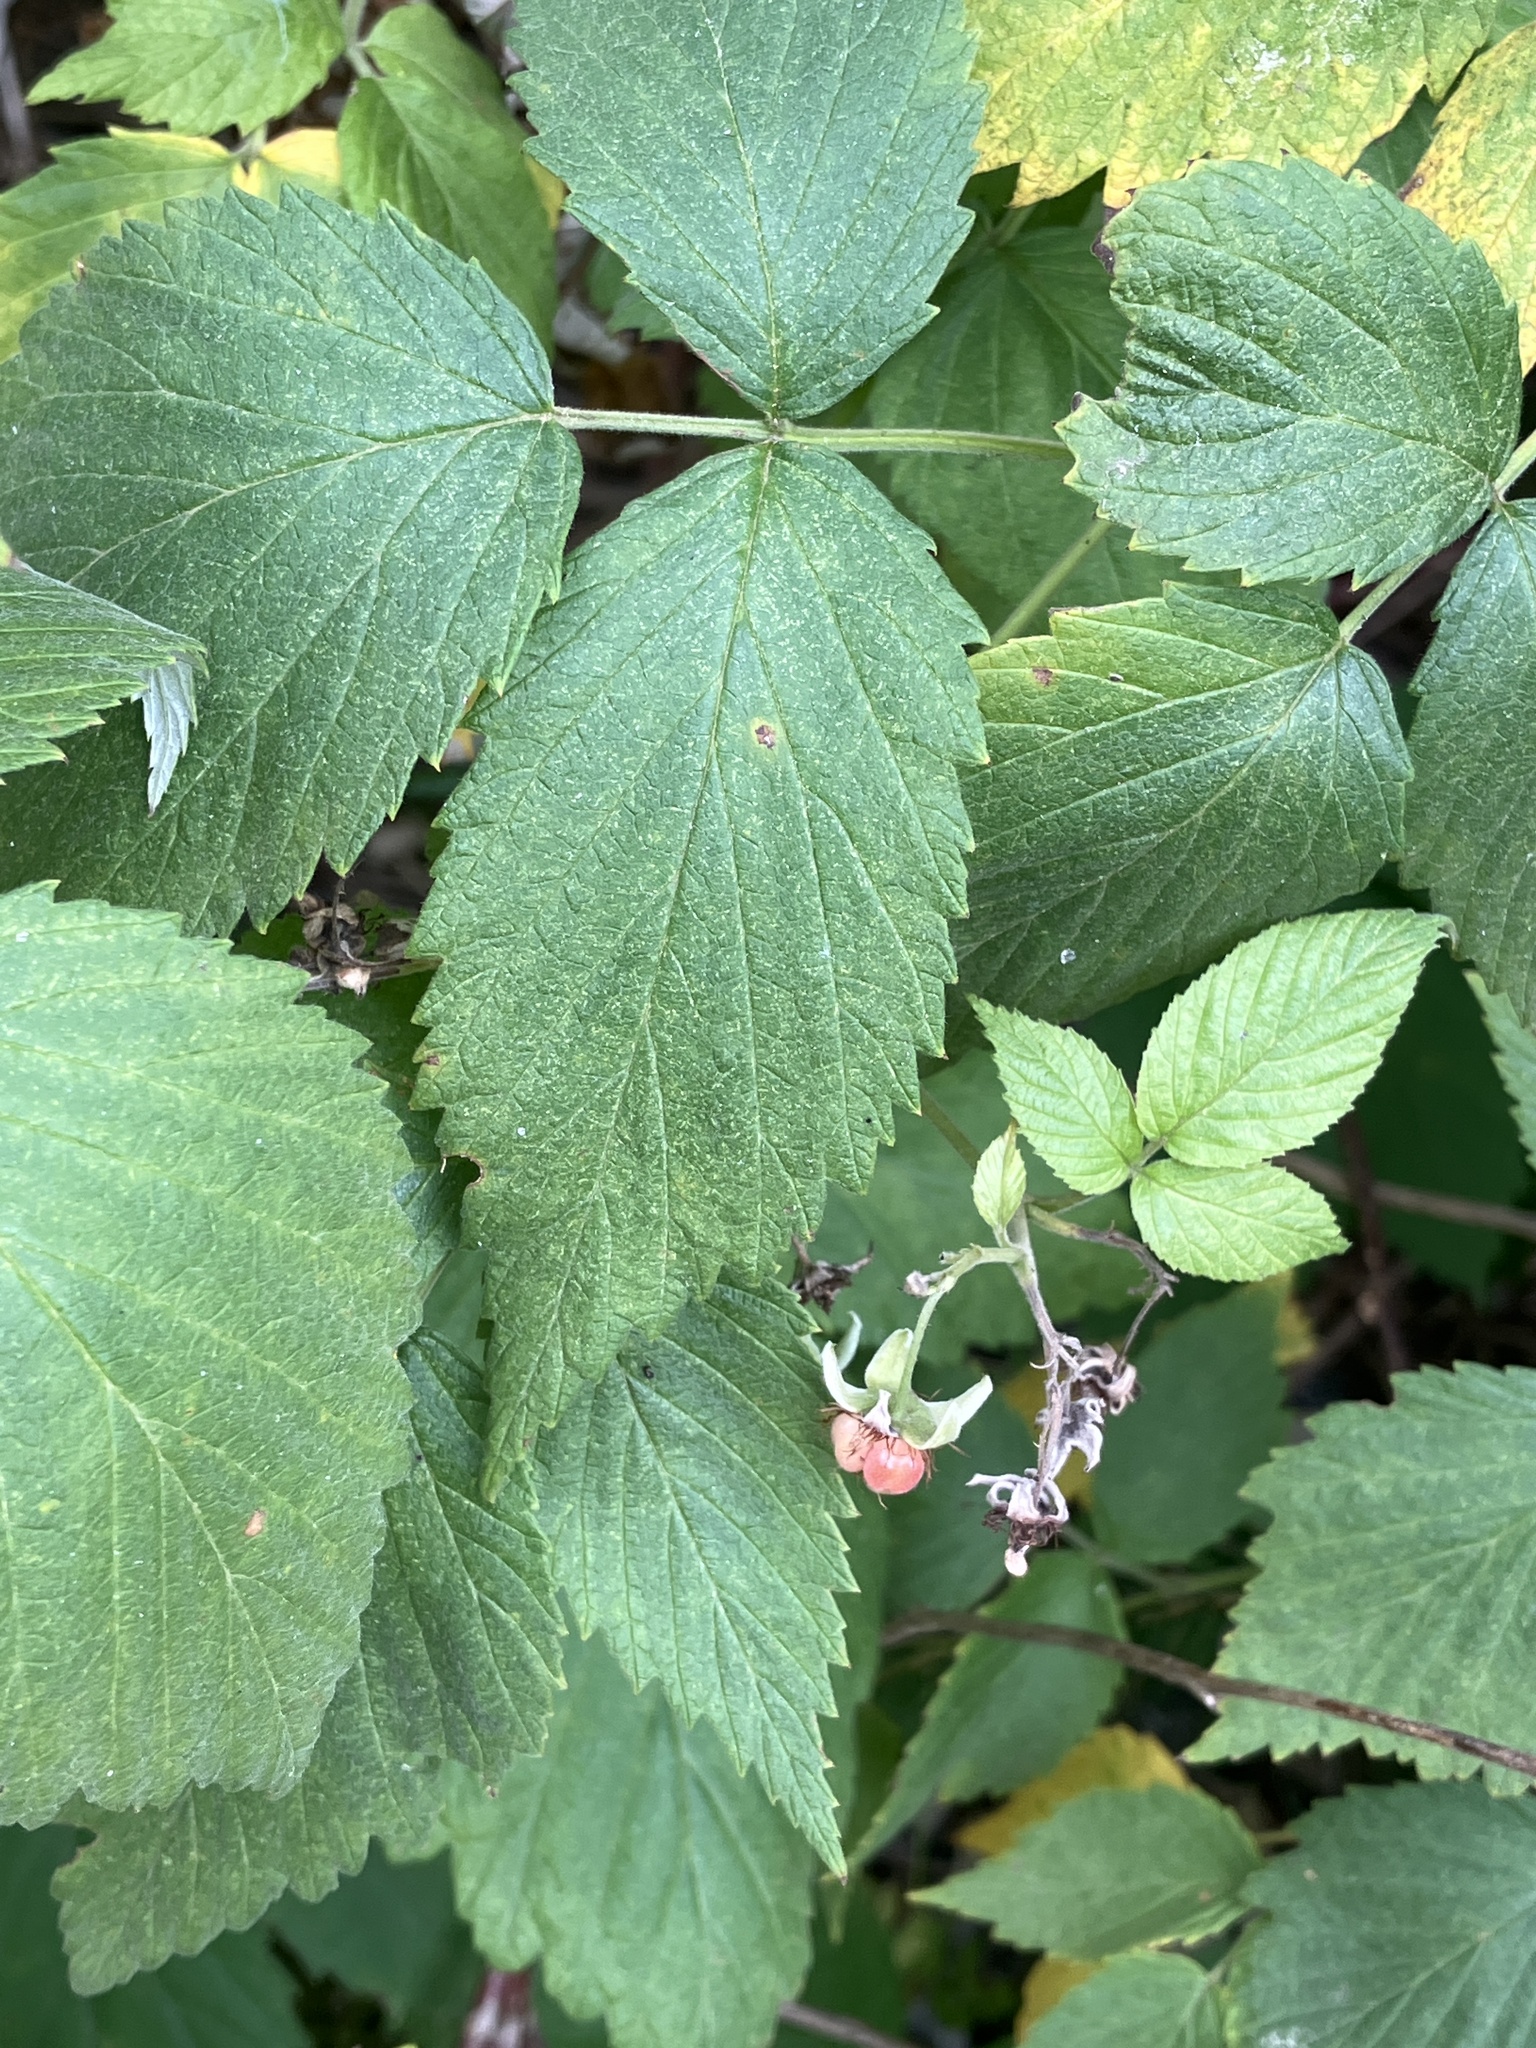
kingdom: Plantae
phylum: Tracheophyta
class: Magnoliopsida
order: Rosales
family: Rosaceae
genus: Rubus
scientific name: Rubus idaeus
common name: Raspberry
